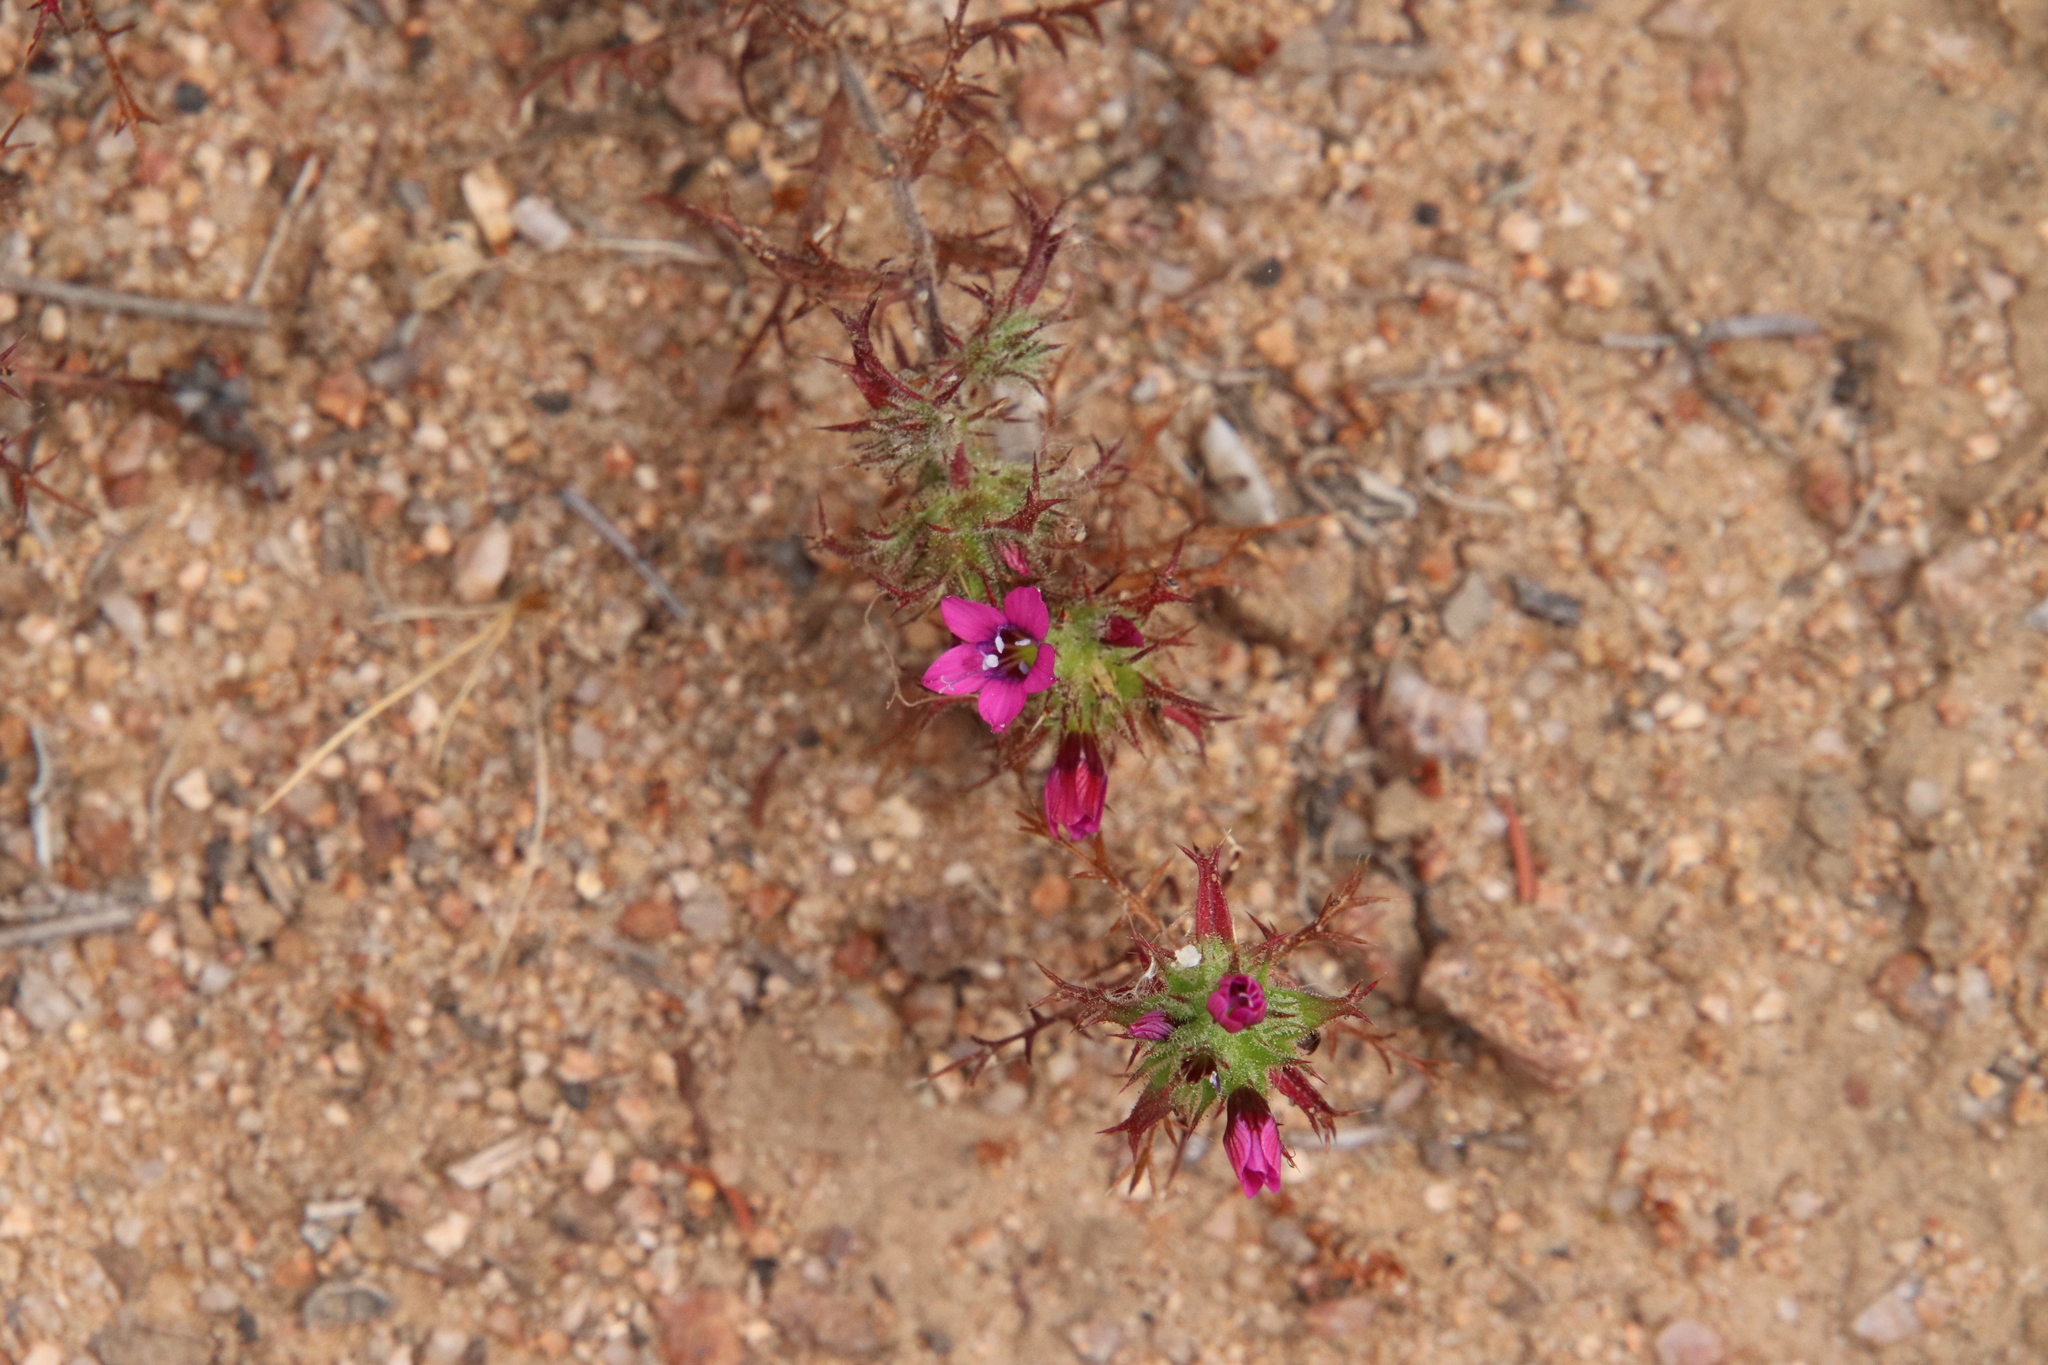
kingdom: Plantae
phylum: Tracheophyta
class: Magnoliopsida
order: Ericales
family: Polemoniaceae
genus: Navarretia
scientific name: Navarretia hamata
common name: Hooked navarretia
